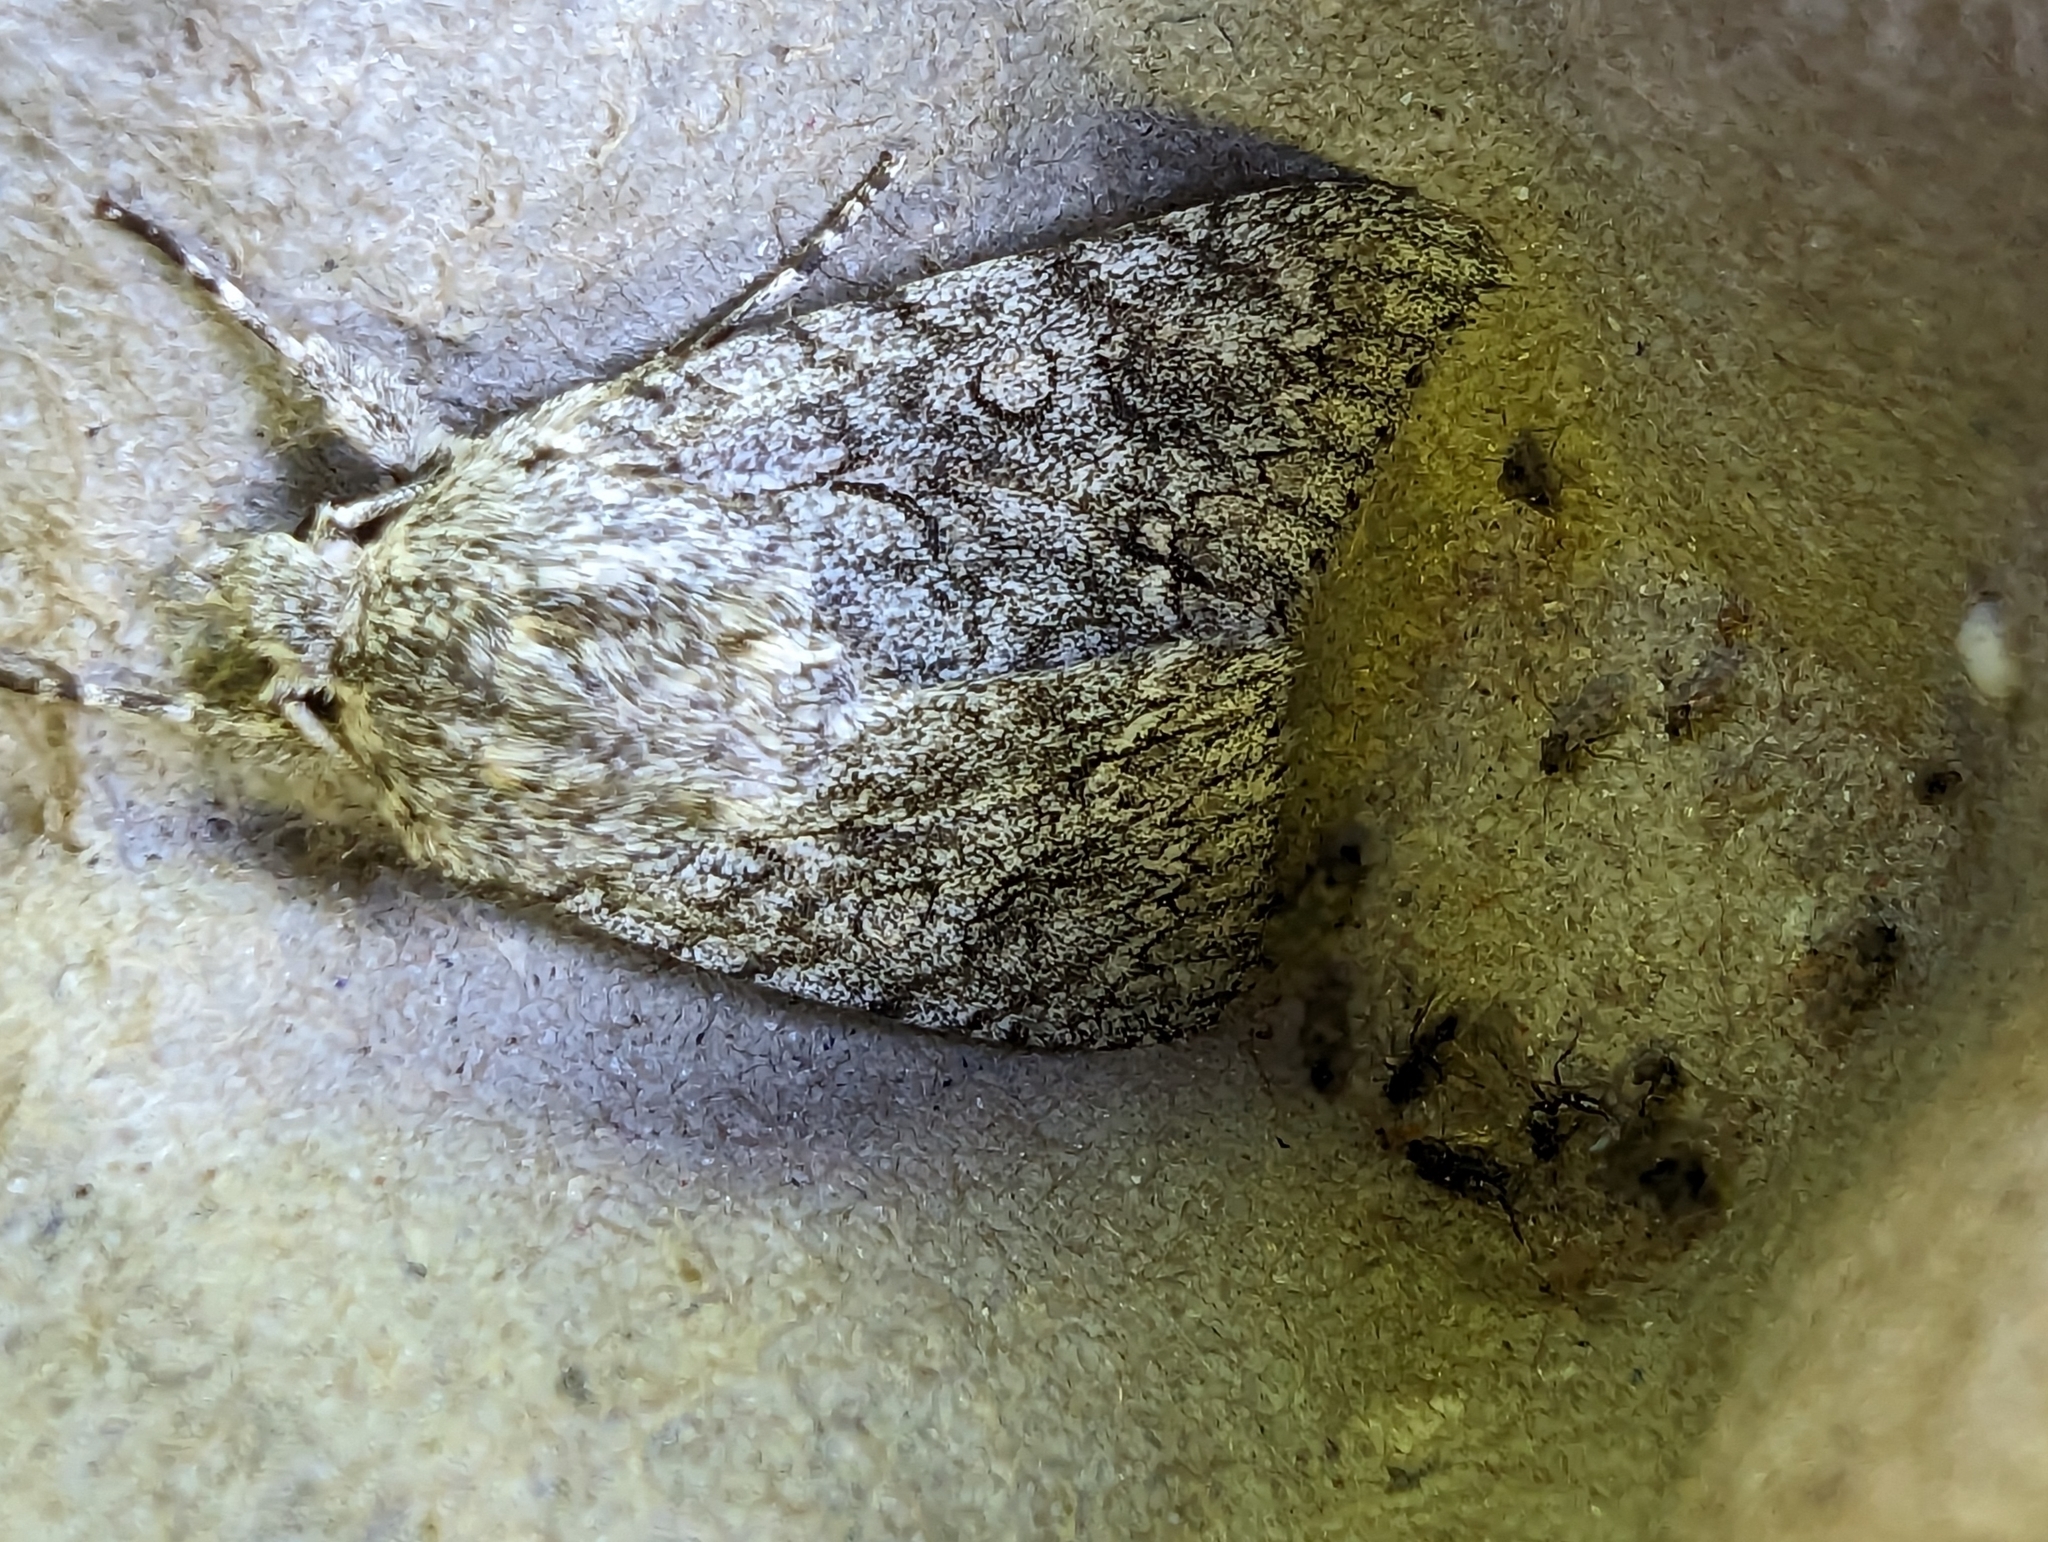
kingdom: Animalia
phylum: Arthropoda
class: Insecta
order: Lepidoptera
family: Noctuidae
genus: Acronicta
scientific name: Acronicta aceris
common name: Sycamore
